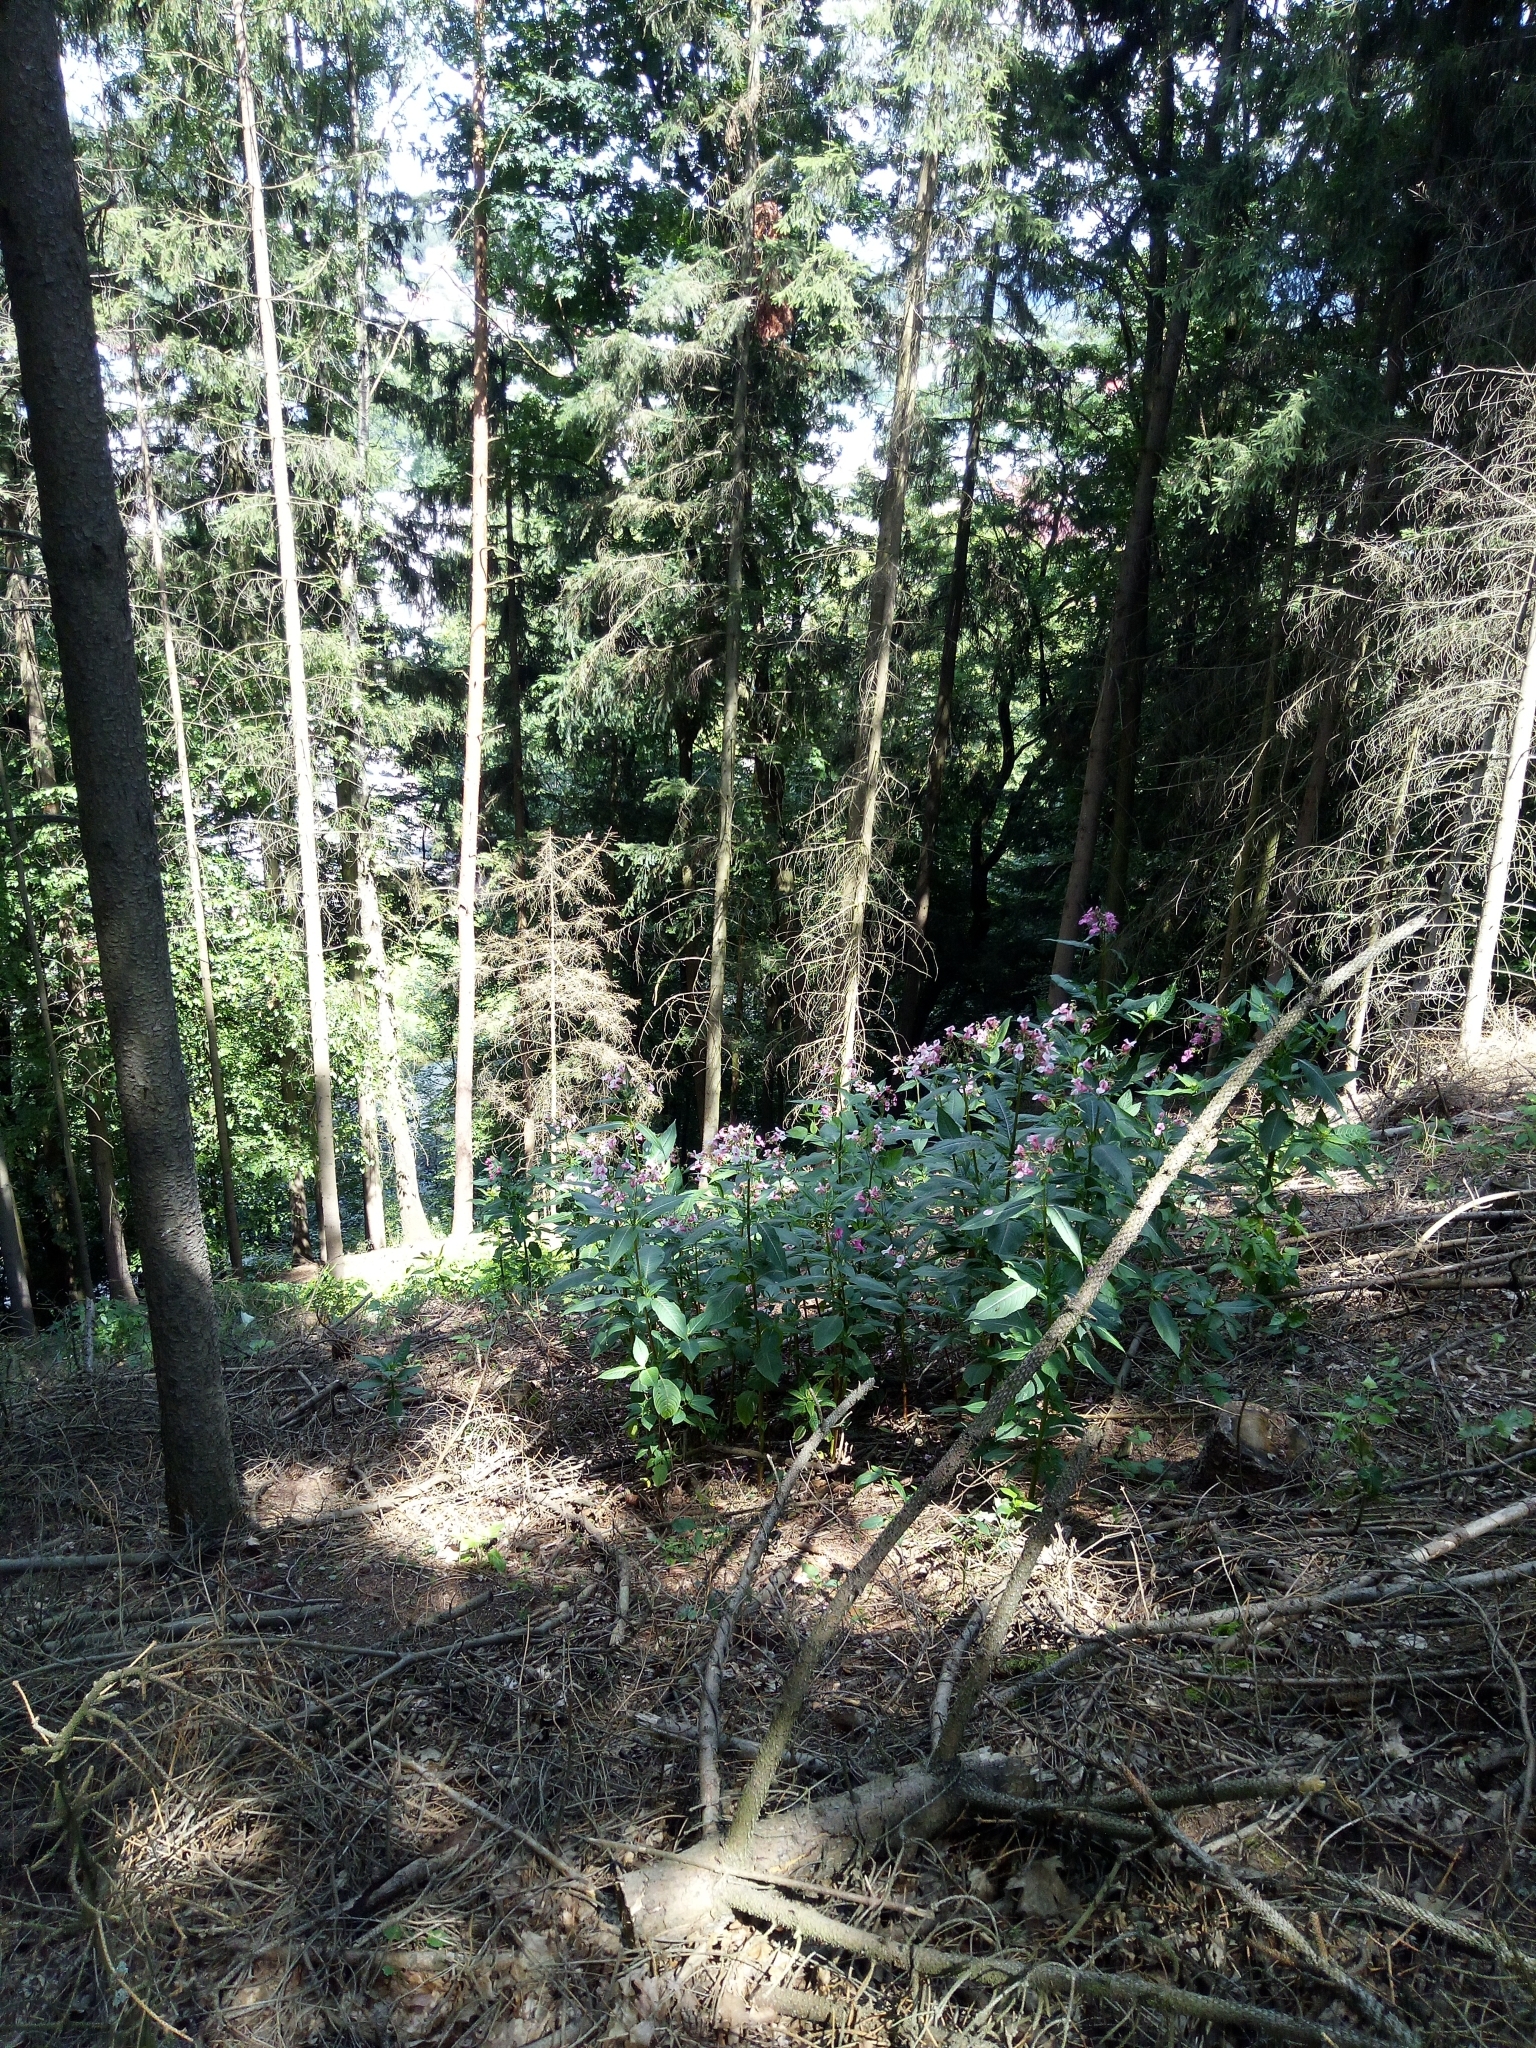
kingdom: Plantae
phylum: Tracheophyta
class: Magnoliopsida
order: Ericales
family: Balsaminaceae
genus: Impatiens
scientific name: Impatiens glandulifera
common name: Himalayan balsam
